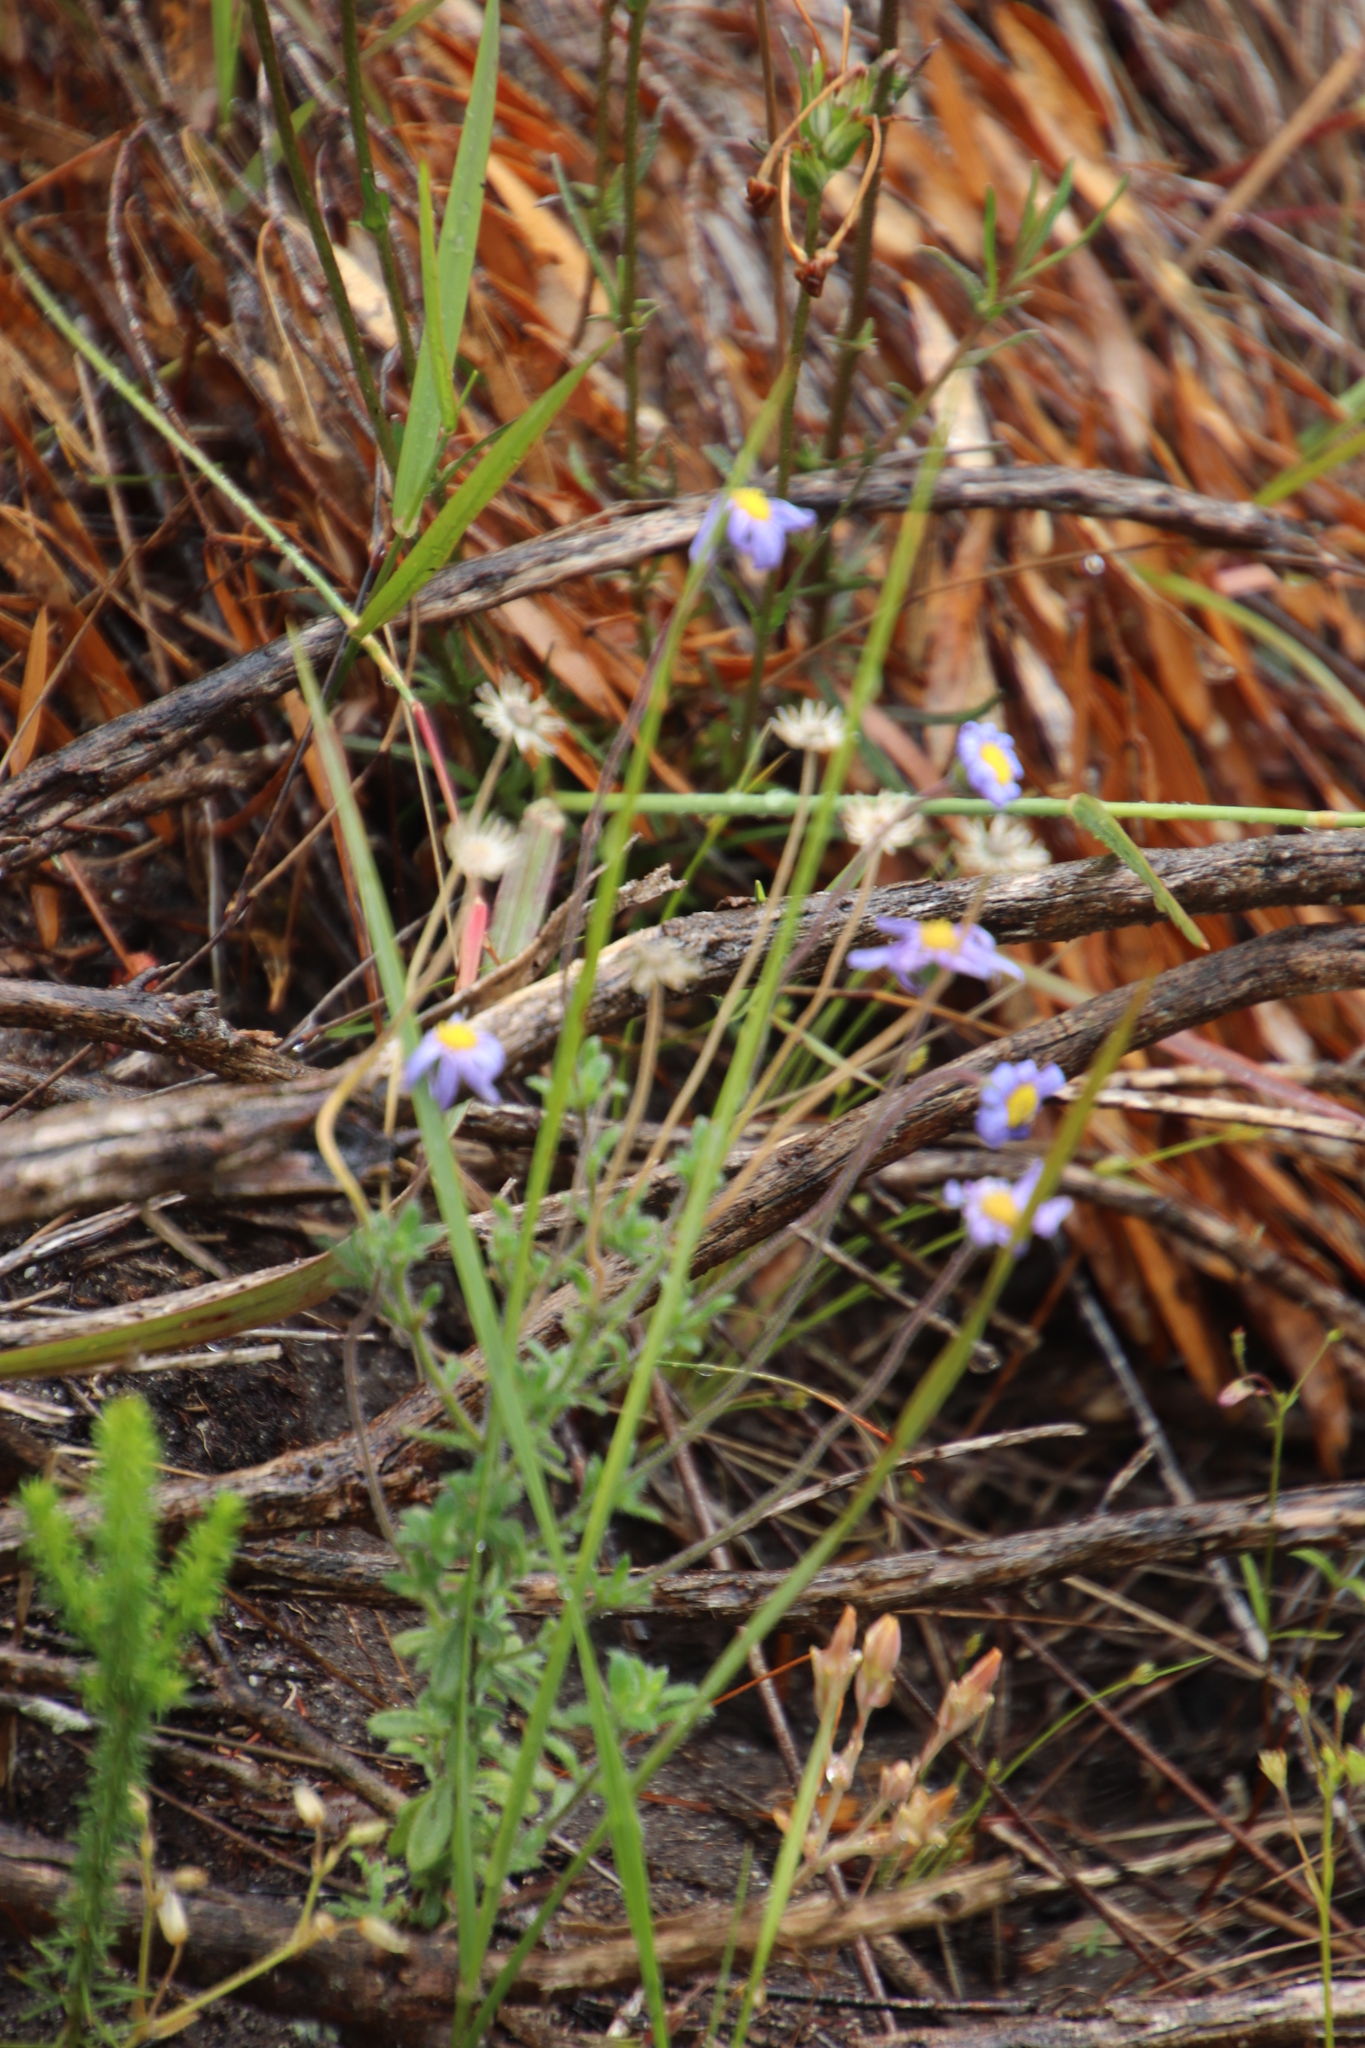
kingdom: Plantae
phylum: Tracheophyta
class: Magnoliopsida
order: Asterales
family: Asteraceae
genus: Felicia
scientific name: Felicia amoena
